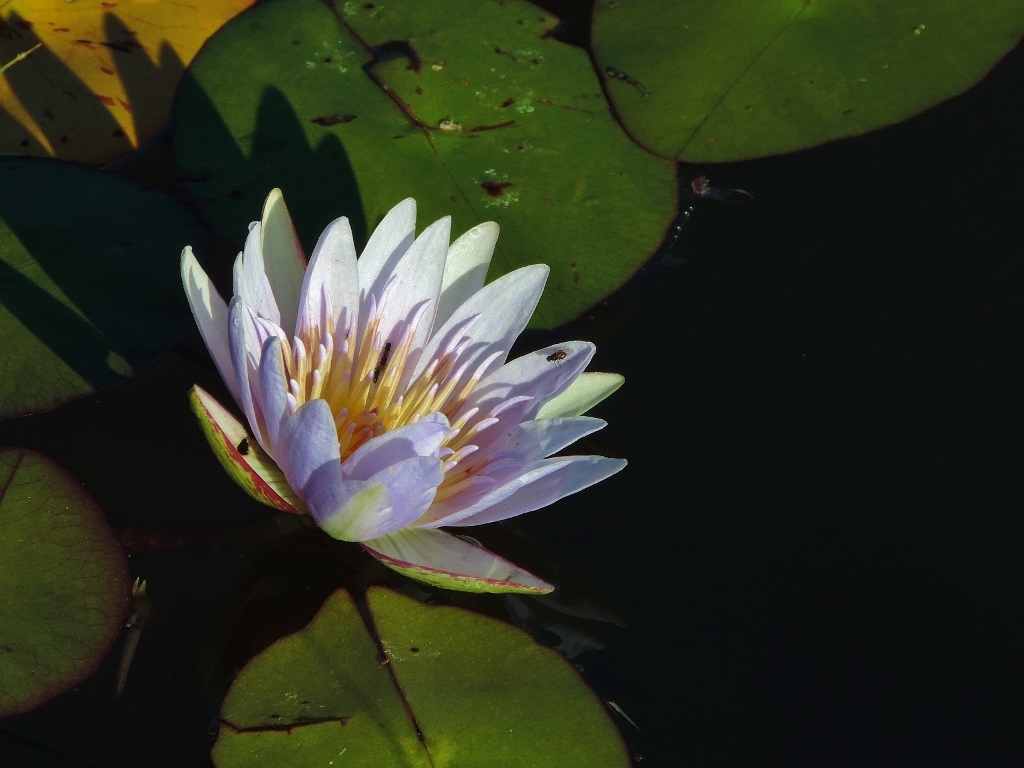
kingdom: Plantae
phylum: Tracheophyta
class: Magnoliopsida
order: Nymphaeales
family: Nymphaeaceae
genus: Nymphaea
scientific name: Nymphaea nouchali
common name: Blue lotus
